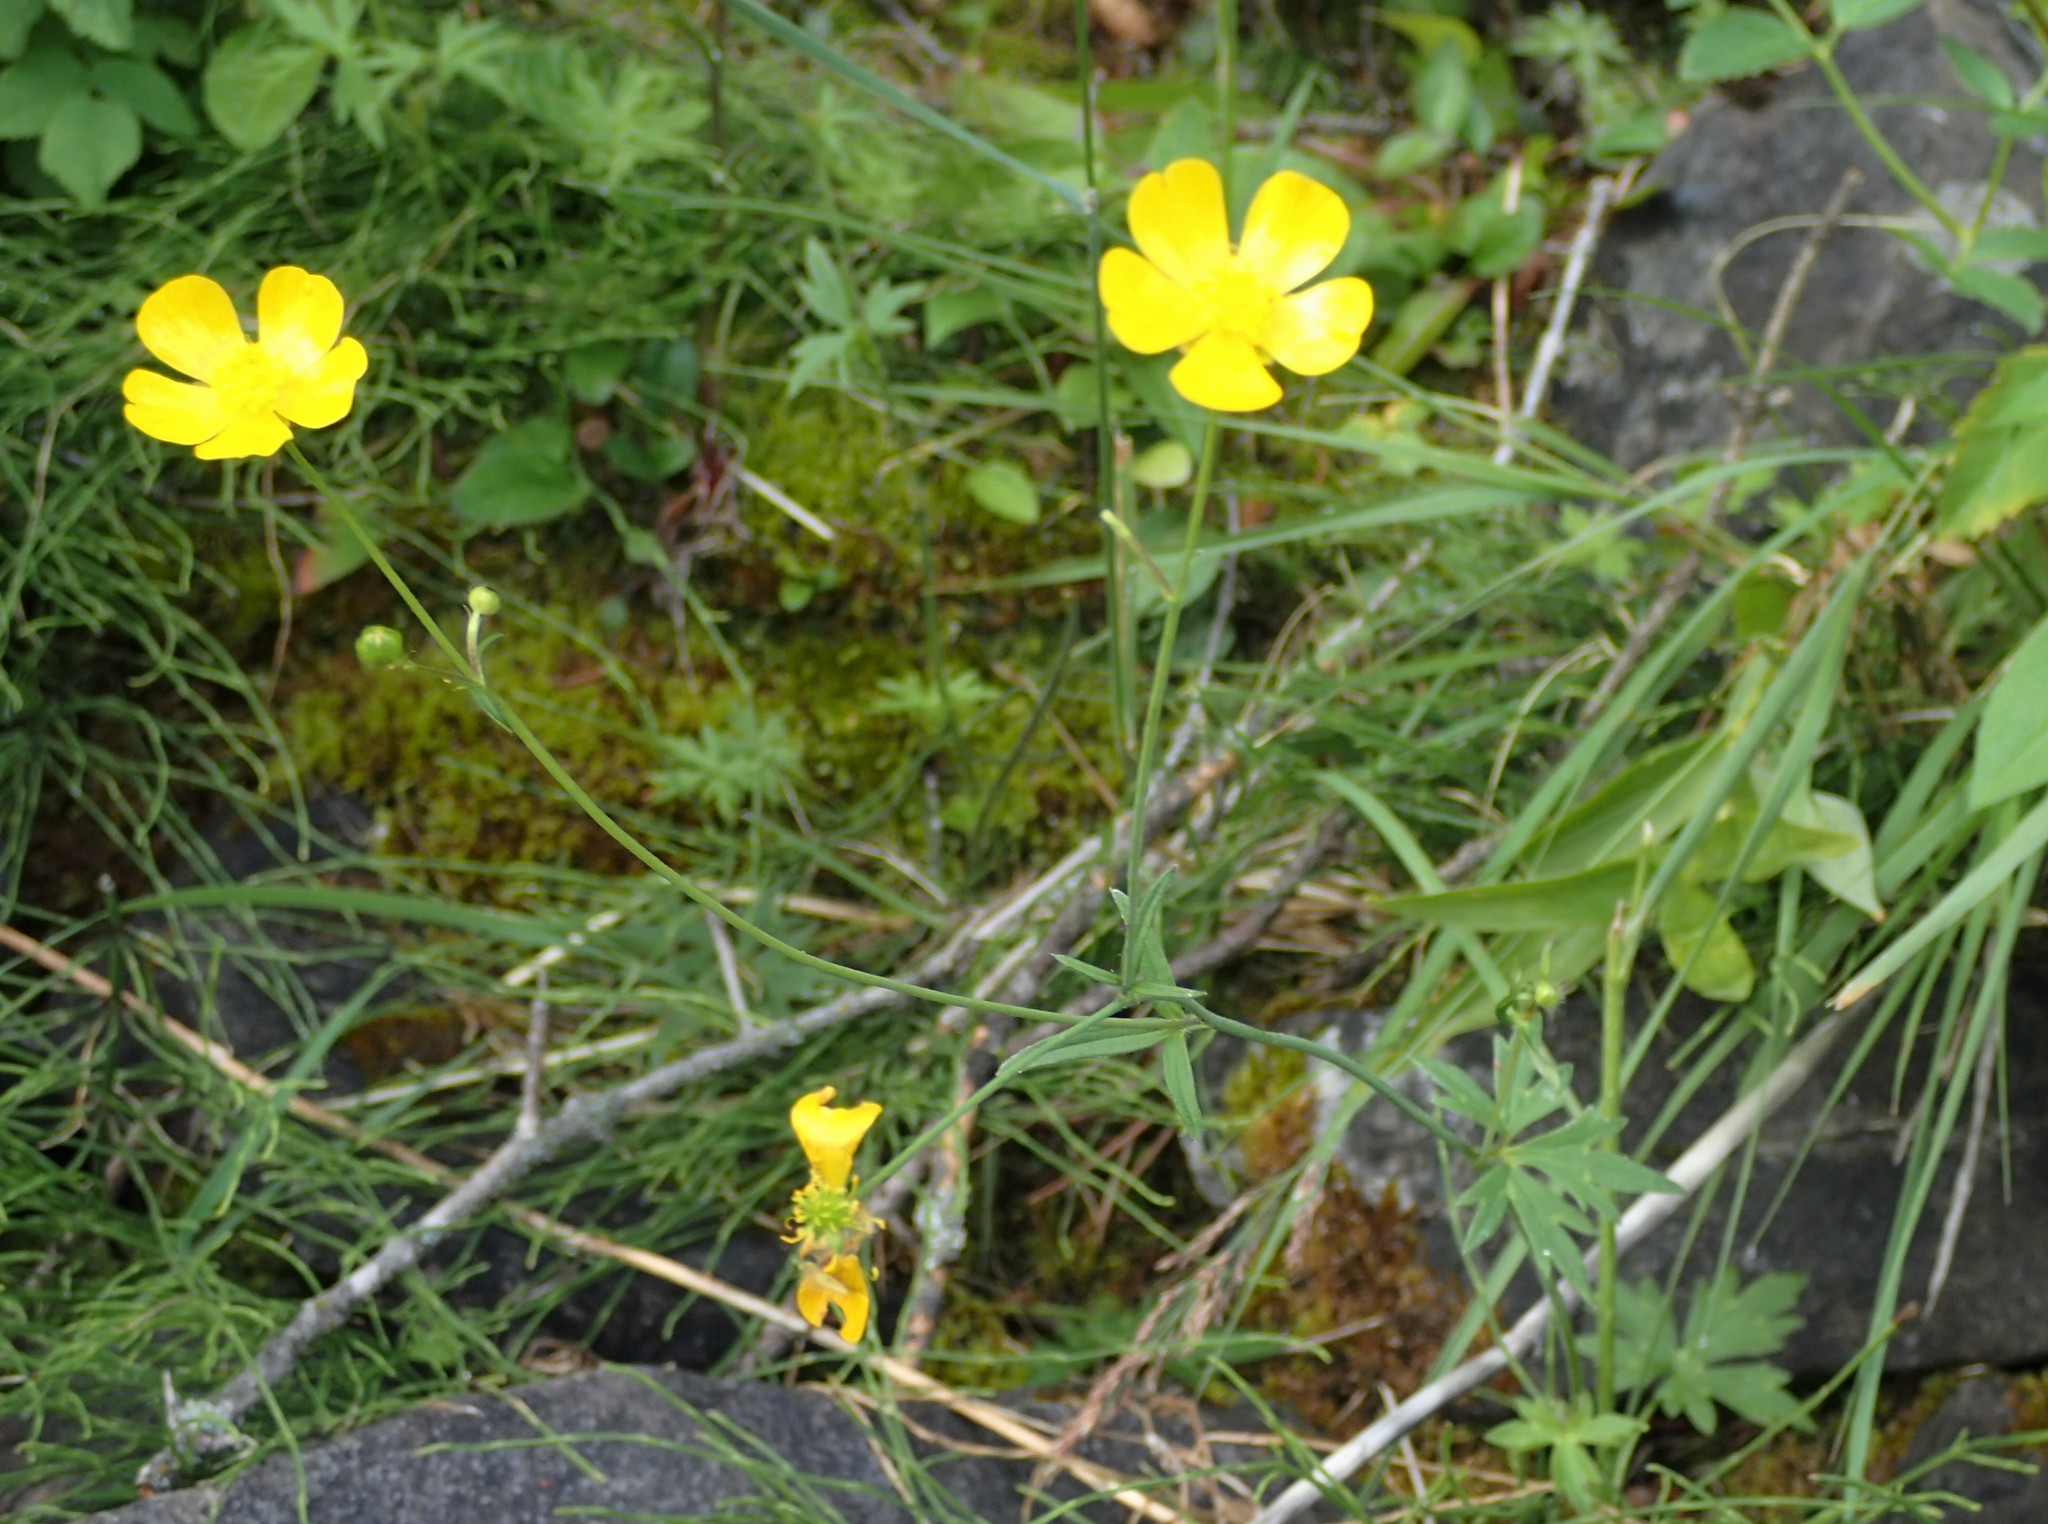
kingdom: Plantae
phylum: Tracheophyta
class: Magnoliopsida
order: Ranunculales
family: Ranunculaceae
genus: Ranunculus
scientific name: Ranunculus acris
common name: Meadow buttercup
